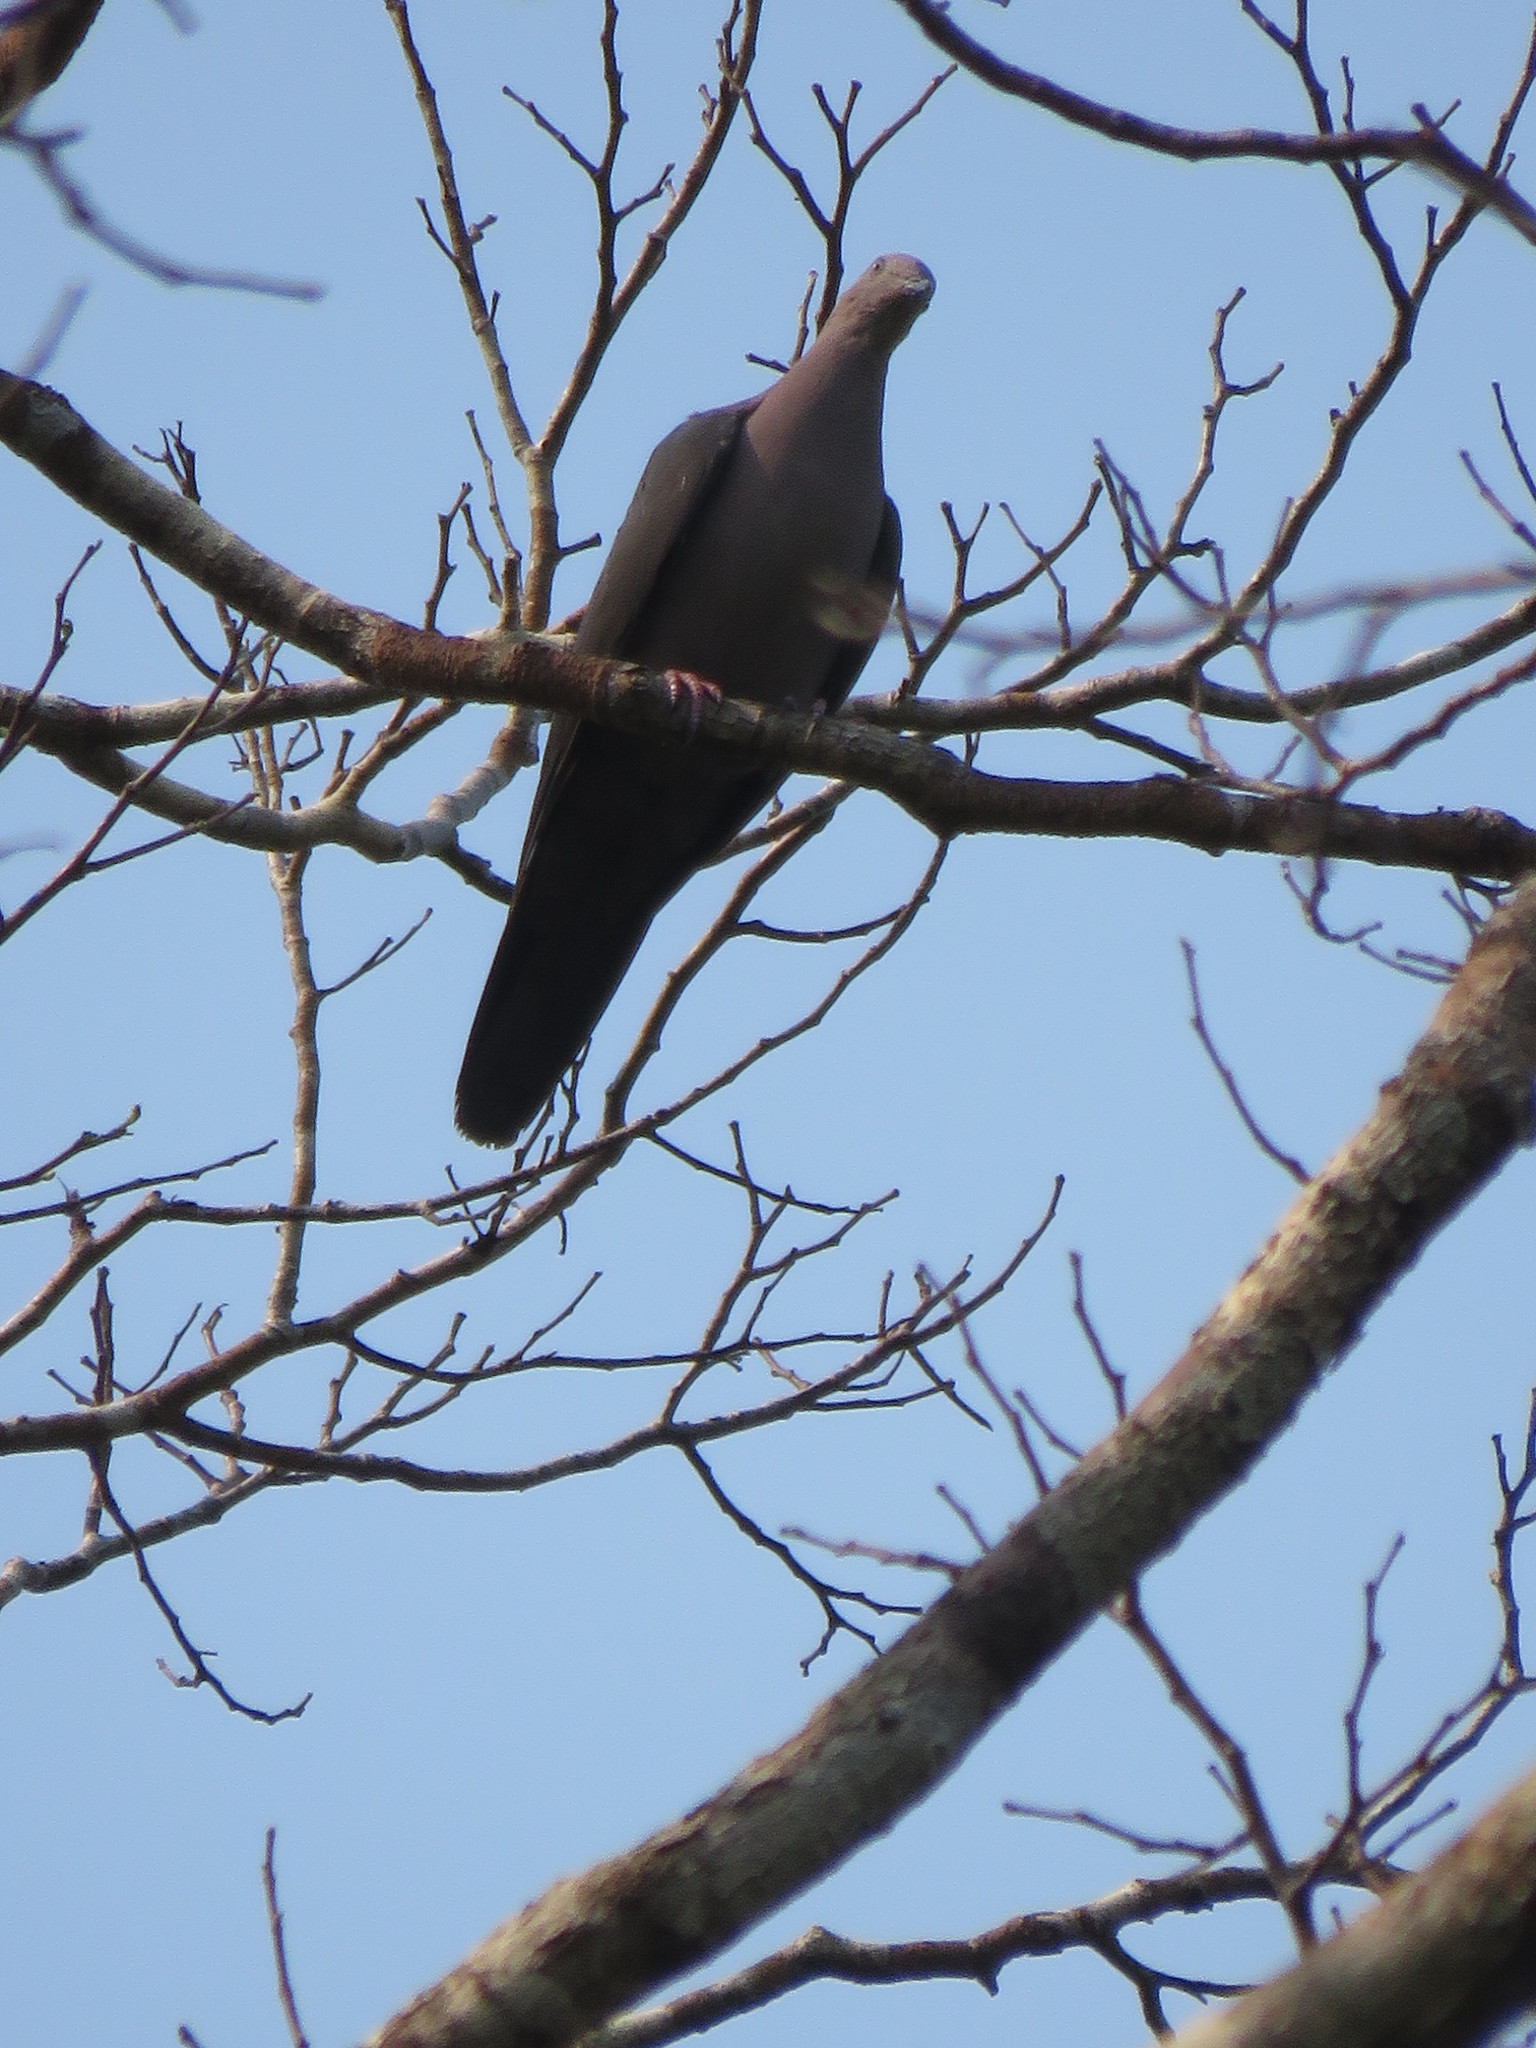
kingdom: Animalia
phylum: Chordata
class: Aves
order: Columbiformes
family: Columbidae
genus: Patagioenas
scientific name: Patagioenas plumbea
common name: Plumbeous pigeon
